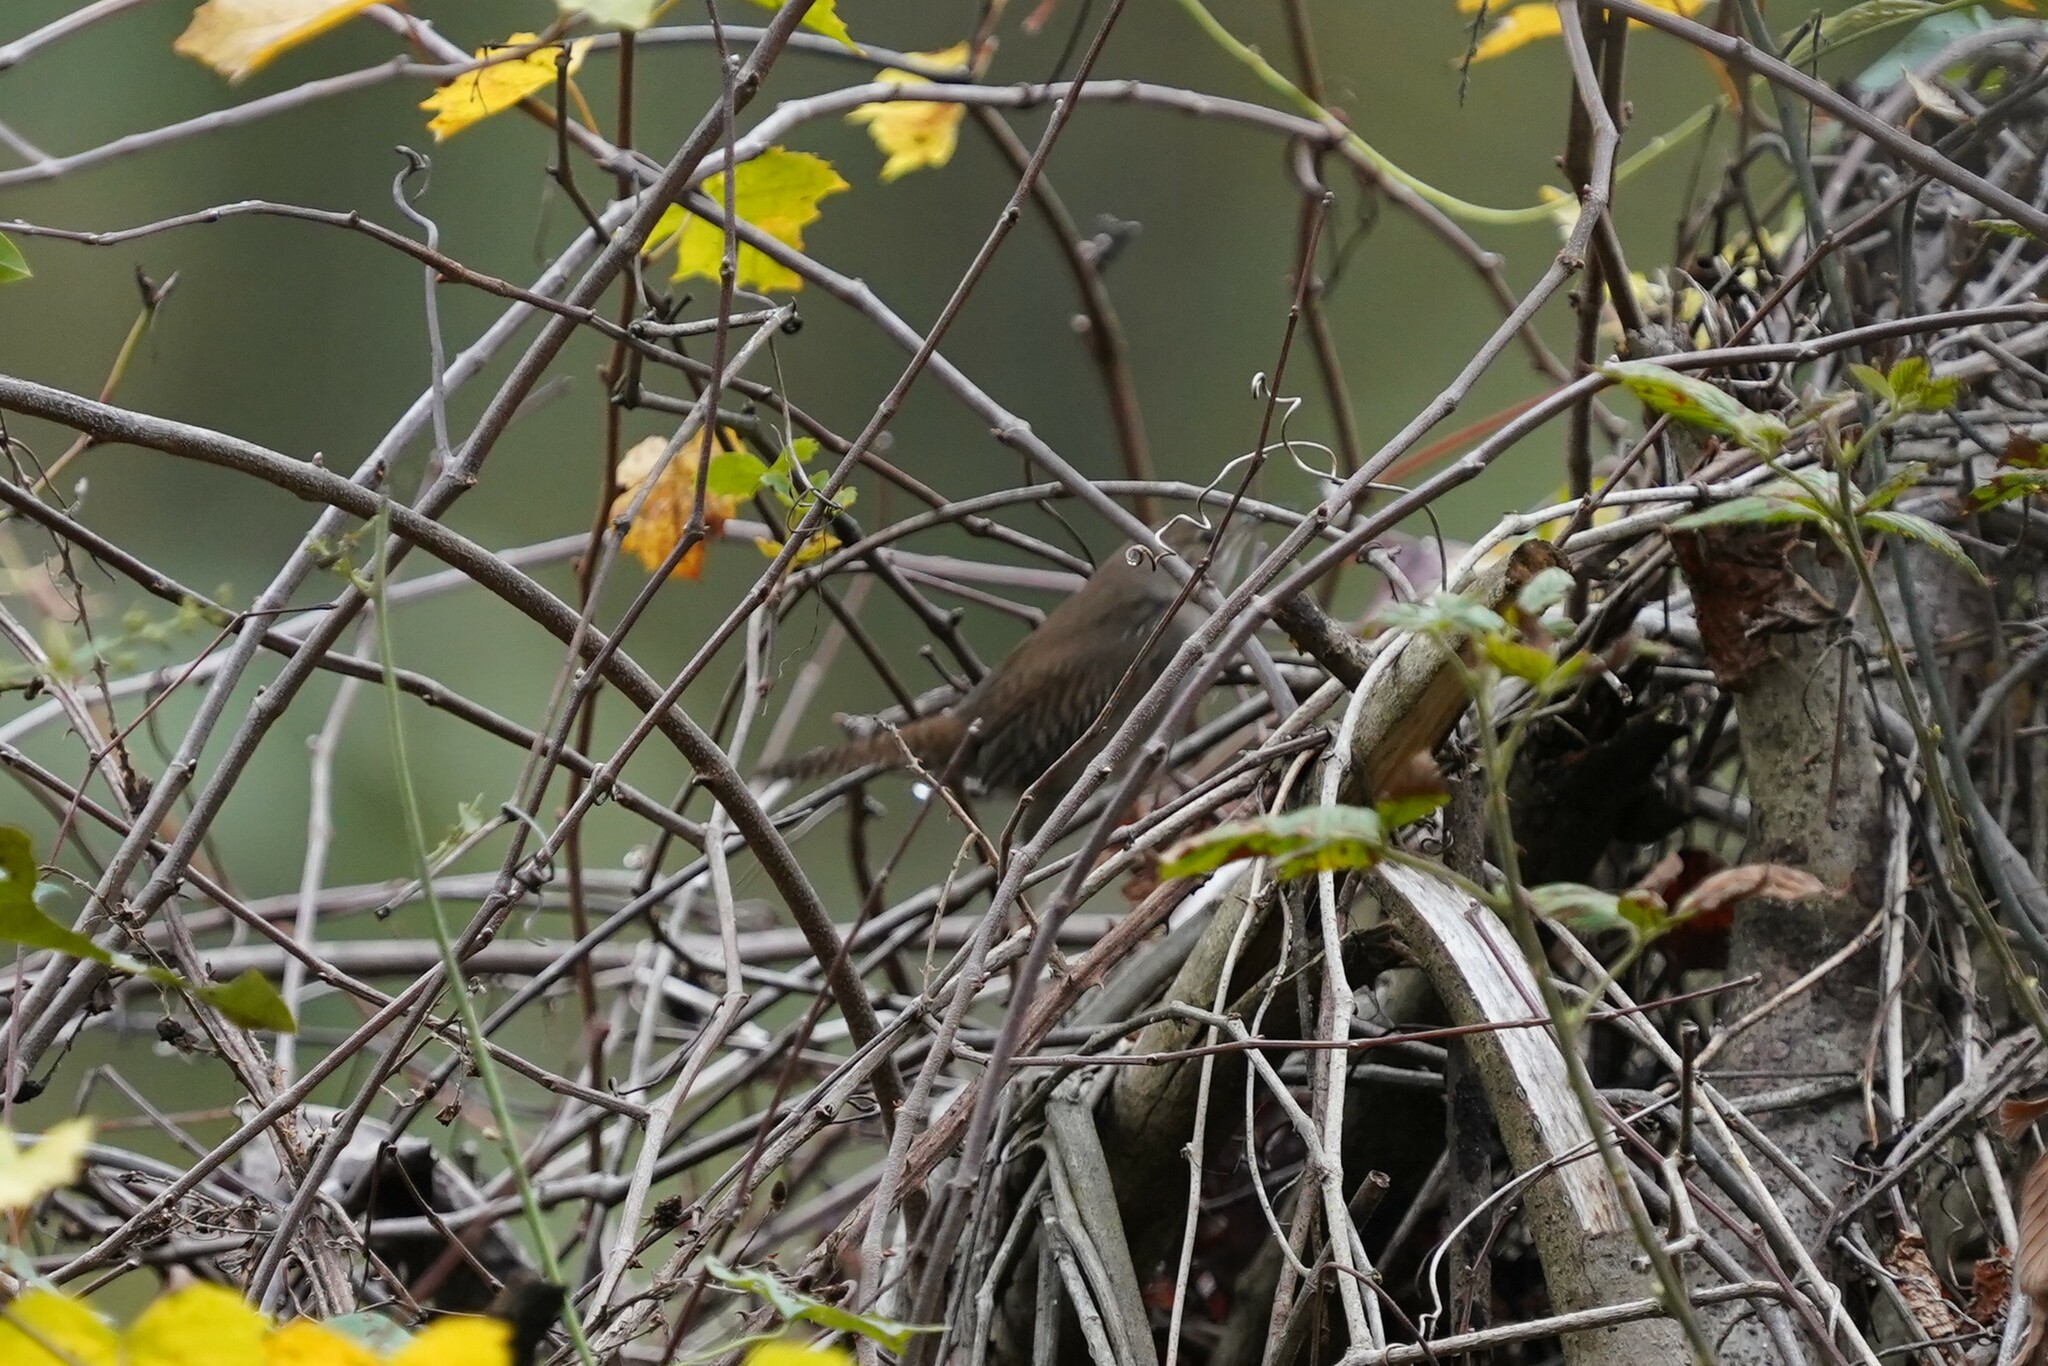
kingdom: Animalia
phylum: Chordata
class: Aves
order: Passeriformes
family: Troglodytidae
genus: Troglodytes
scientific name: Troglodytes aedon
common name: House wren
